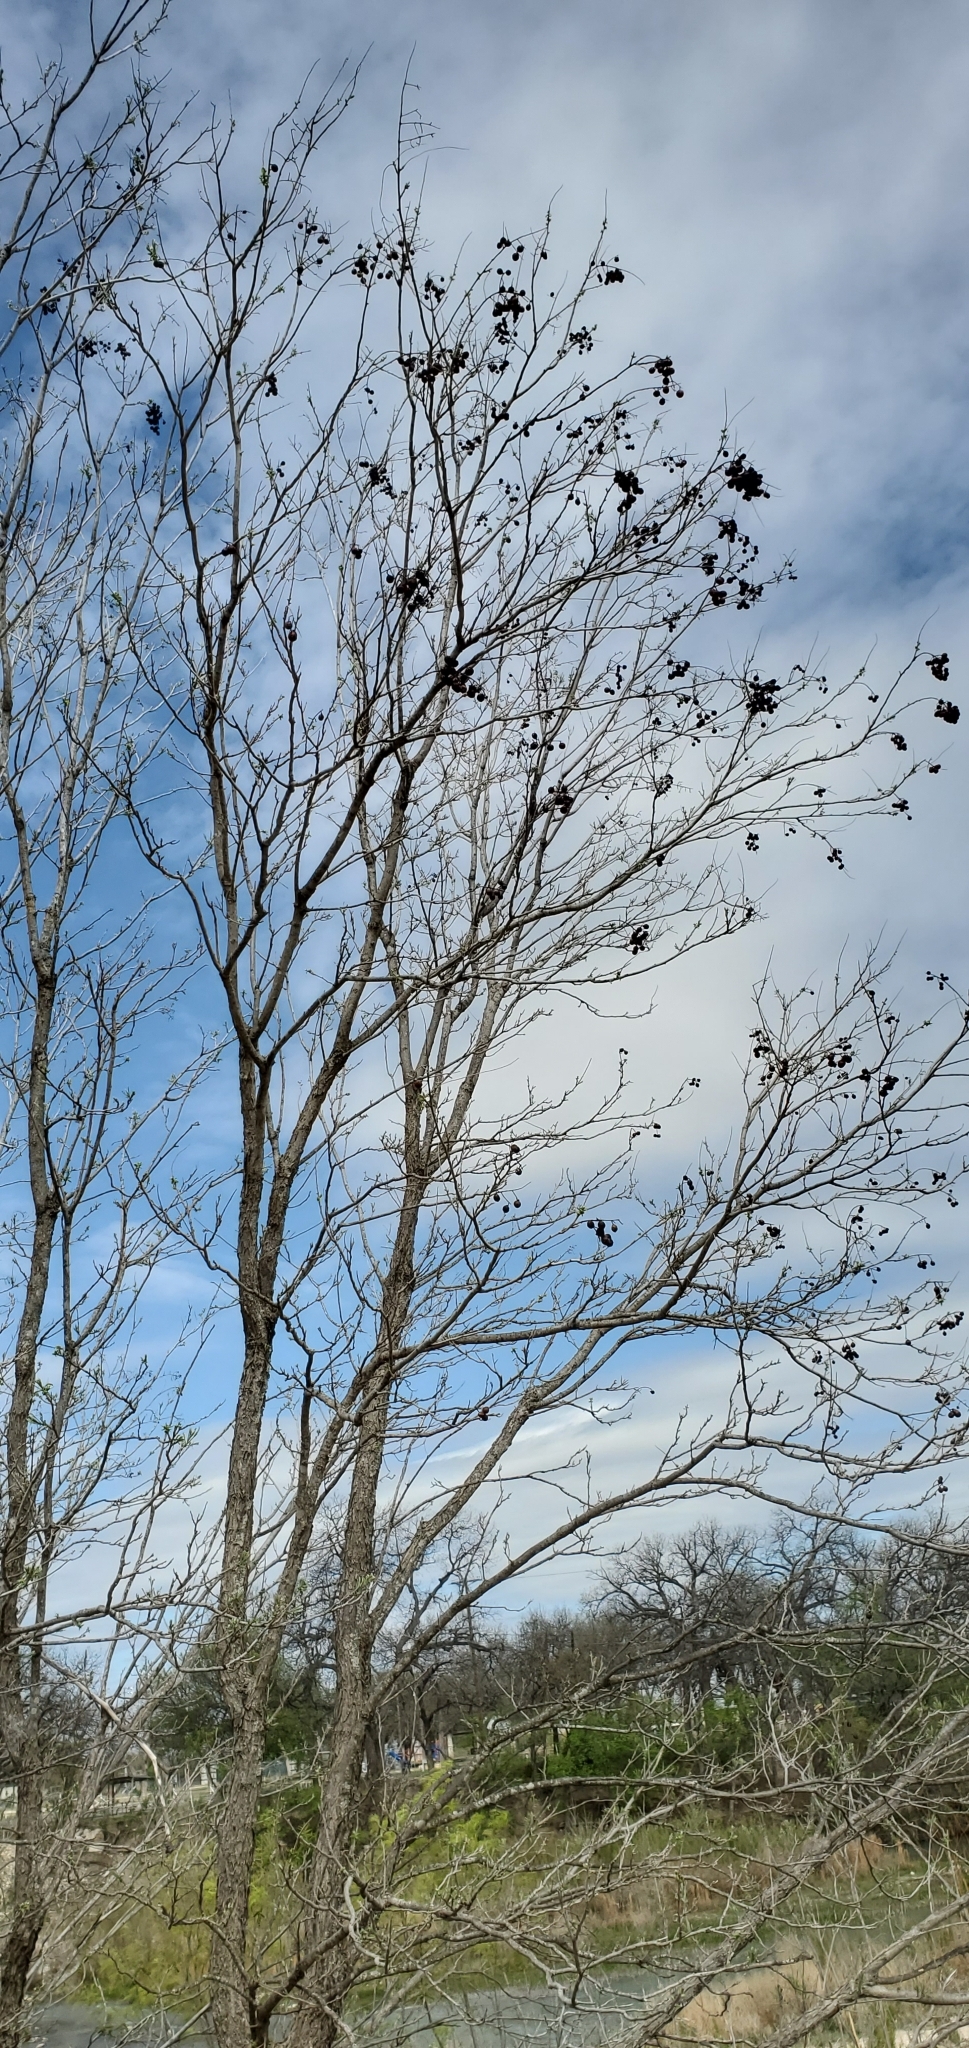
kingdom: Plantae
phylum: Tracheophyta
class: Magnoliopsida
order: Sapindales
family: Sapindaceae
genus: Sapindus
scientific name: Sapindus drummondii
